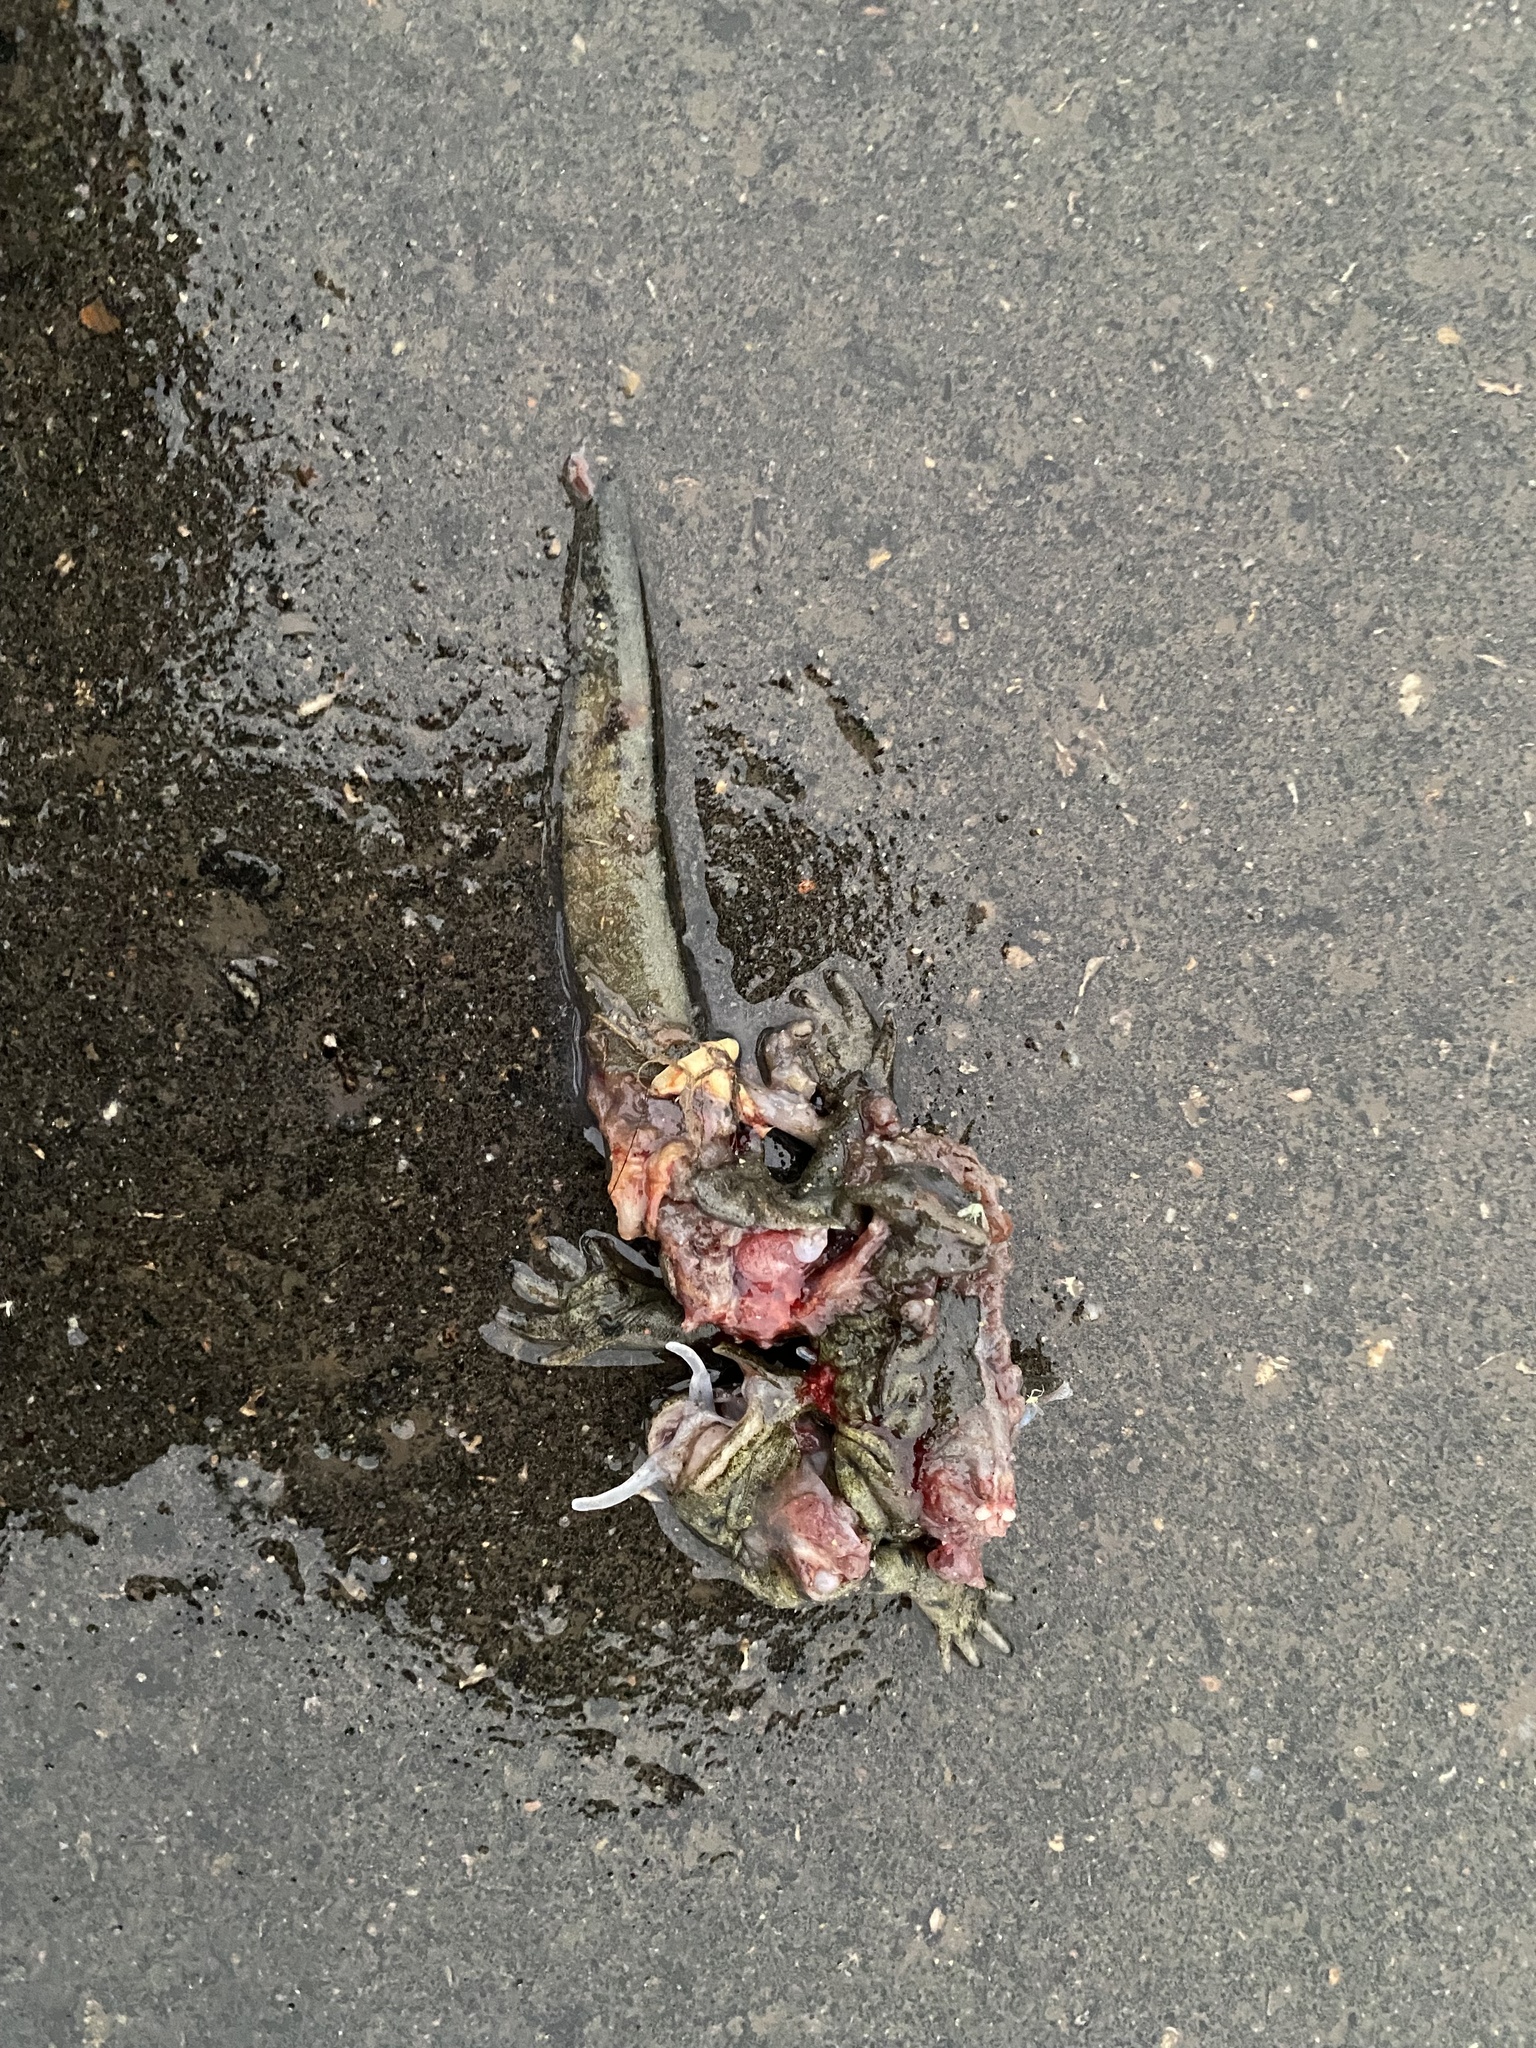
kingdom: Animalia
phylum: Chordata
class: Amphibia
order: Caudata
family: Ambystomatidae
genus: Ambystoma
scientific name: Ambystoma mavortium
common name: Western tiger salamander
